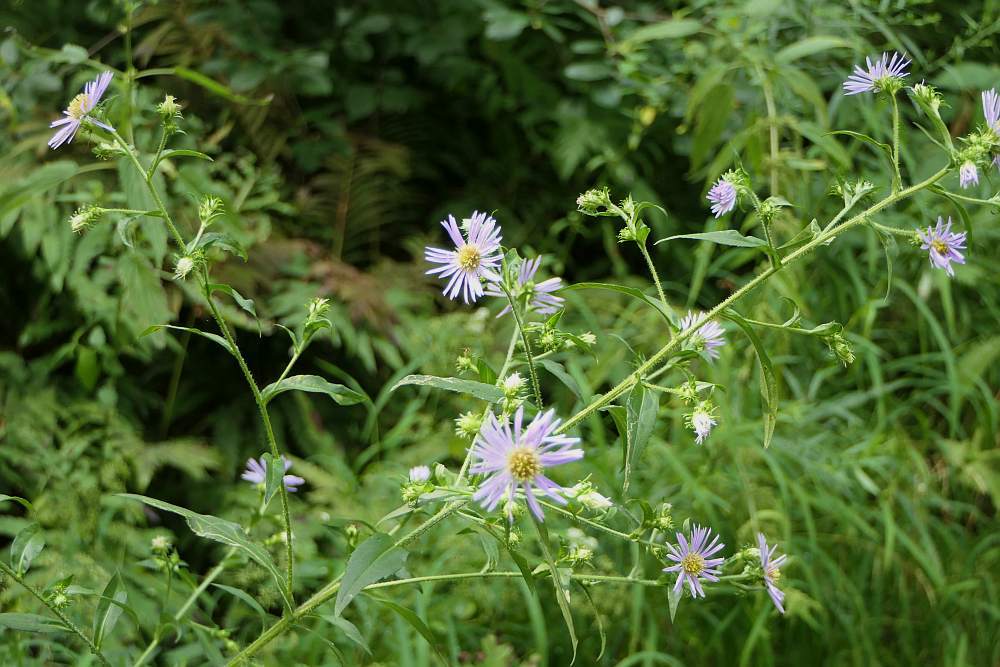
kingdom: Plantae
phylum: Tracheophyta
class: Magnoliopsida
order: Asterales
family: Asteraceae
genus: Symphyotrichum
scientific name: Symphyotrichum puniceum
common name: Bog aster
